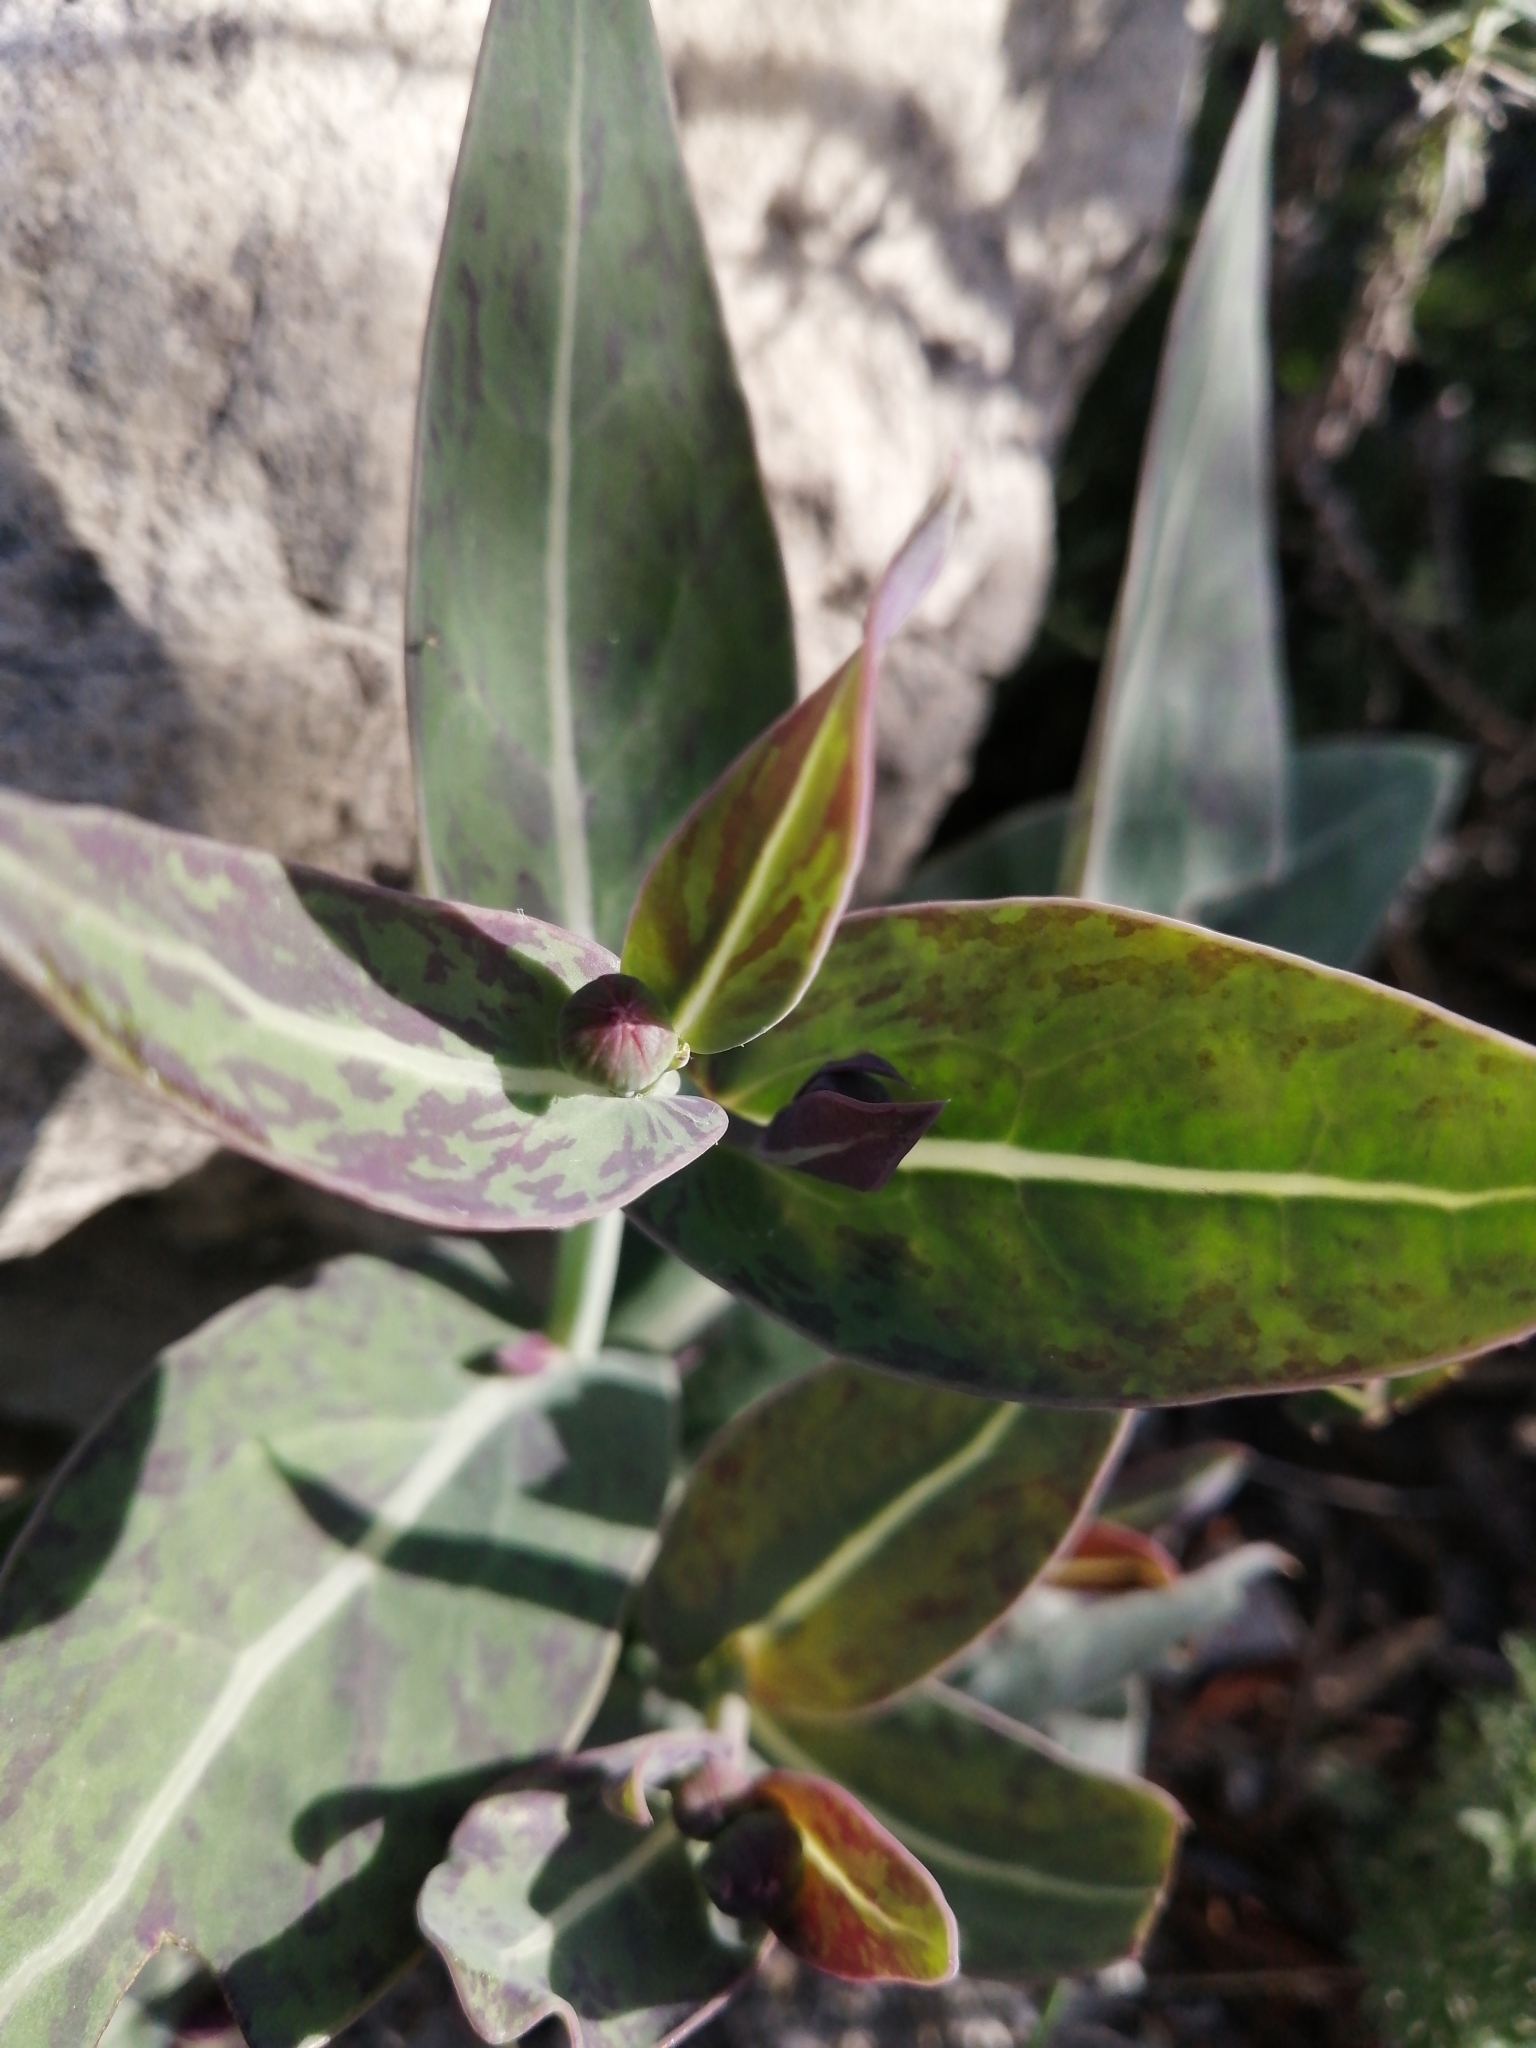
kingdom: Plantae
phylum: Tracheophyta
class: Magnoliopsida
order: Asterales
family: Asteraceae
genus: Othonna
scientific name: Othonna gymnodiscus
